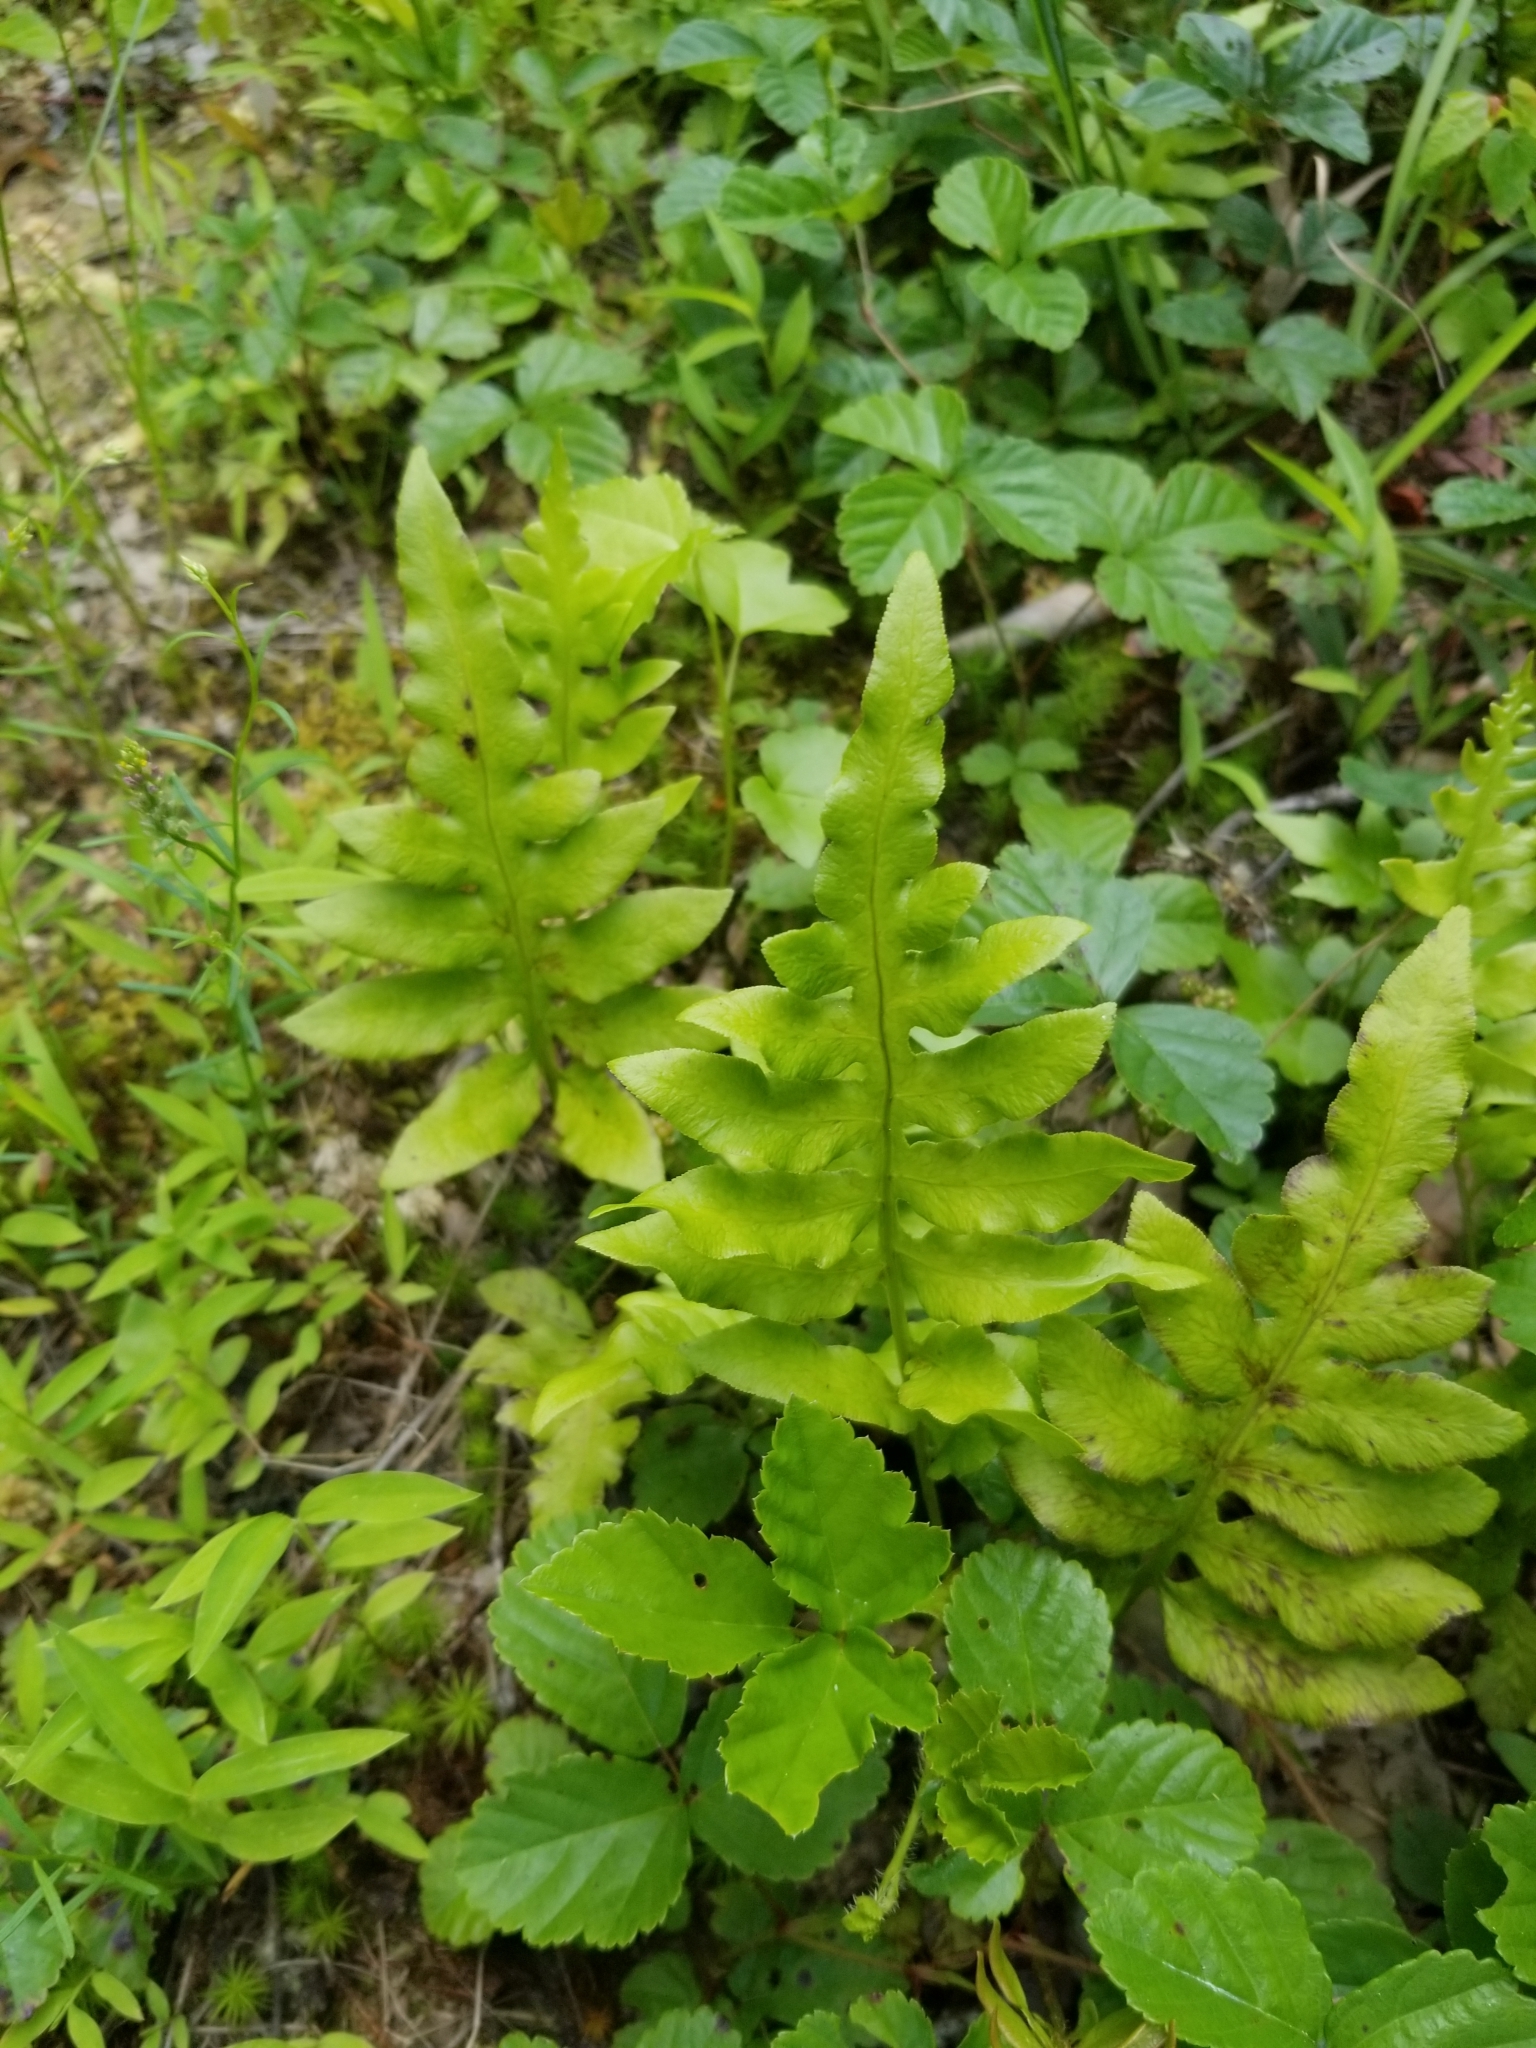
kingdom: Plantae
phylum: Tracheophyta
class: Polypodiopsida
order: Polypodiales
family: Blechnaceae
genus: Lorinseria
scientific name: Lorinseria areolata
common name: Dwarf chain fern
